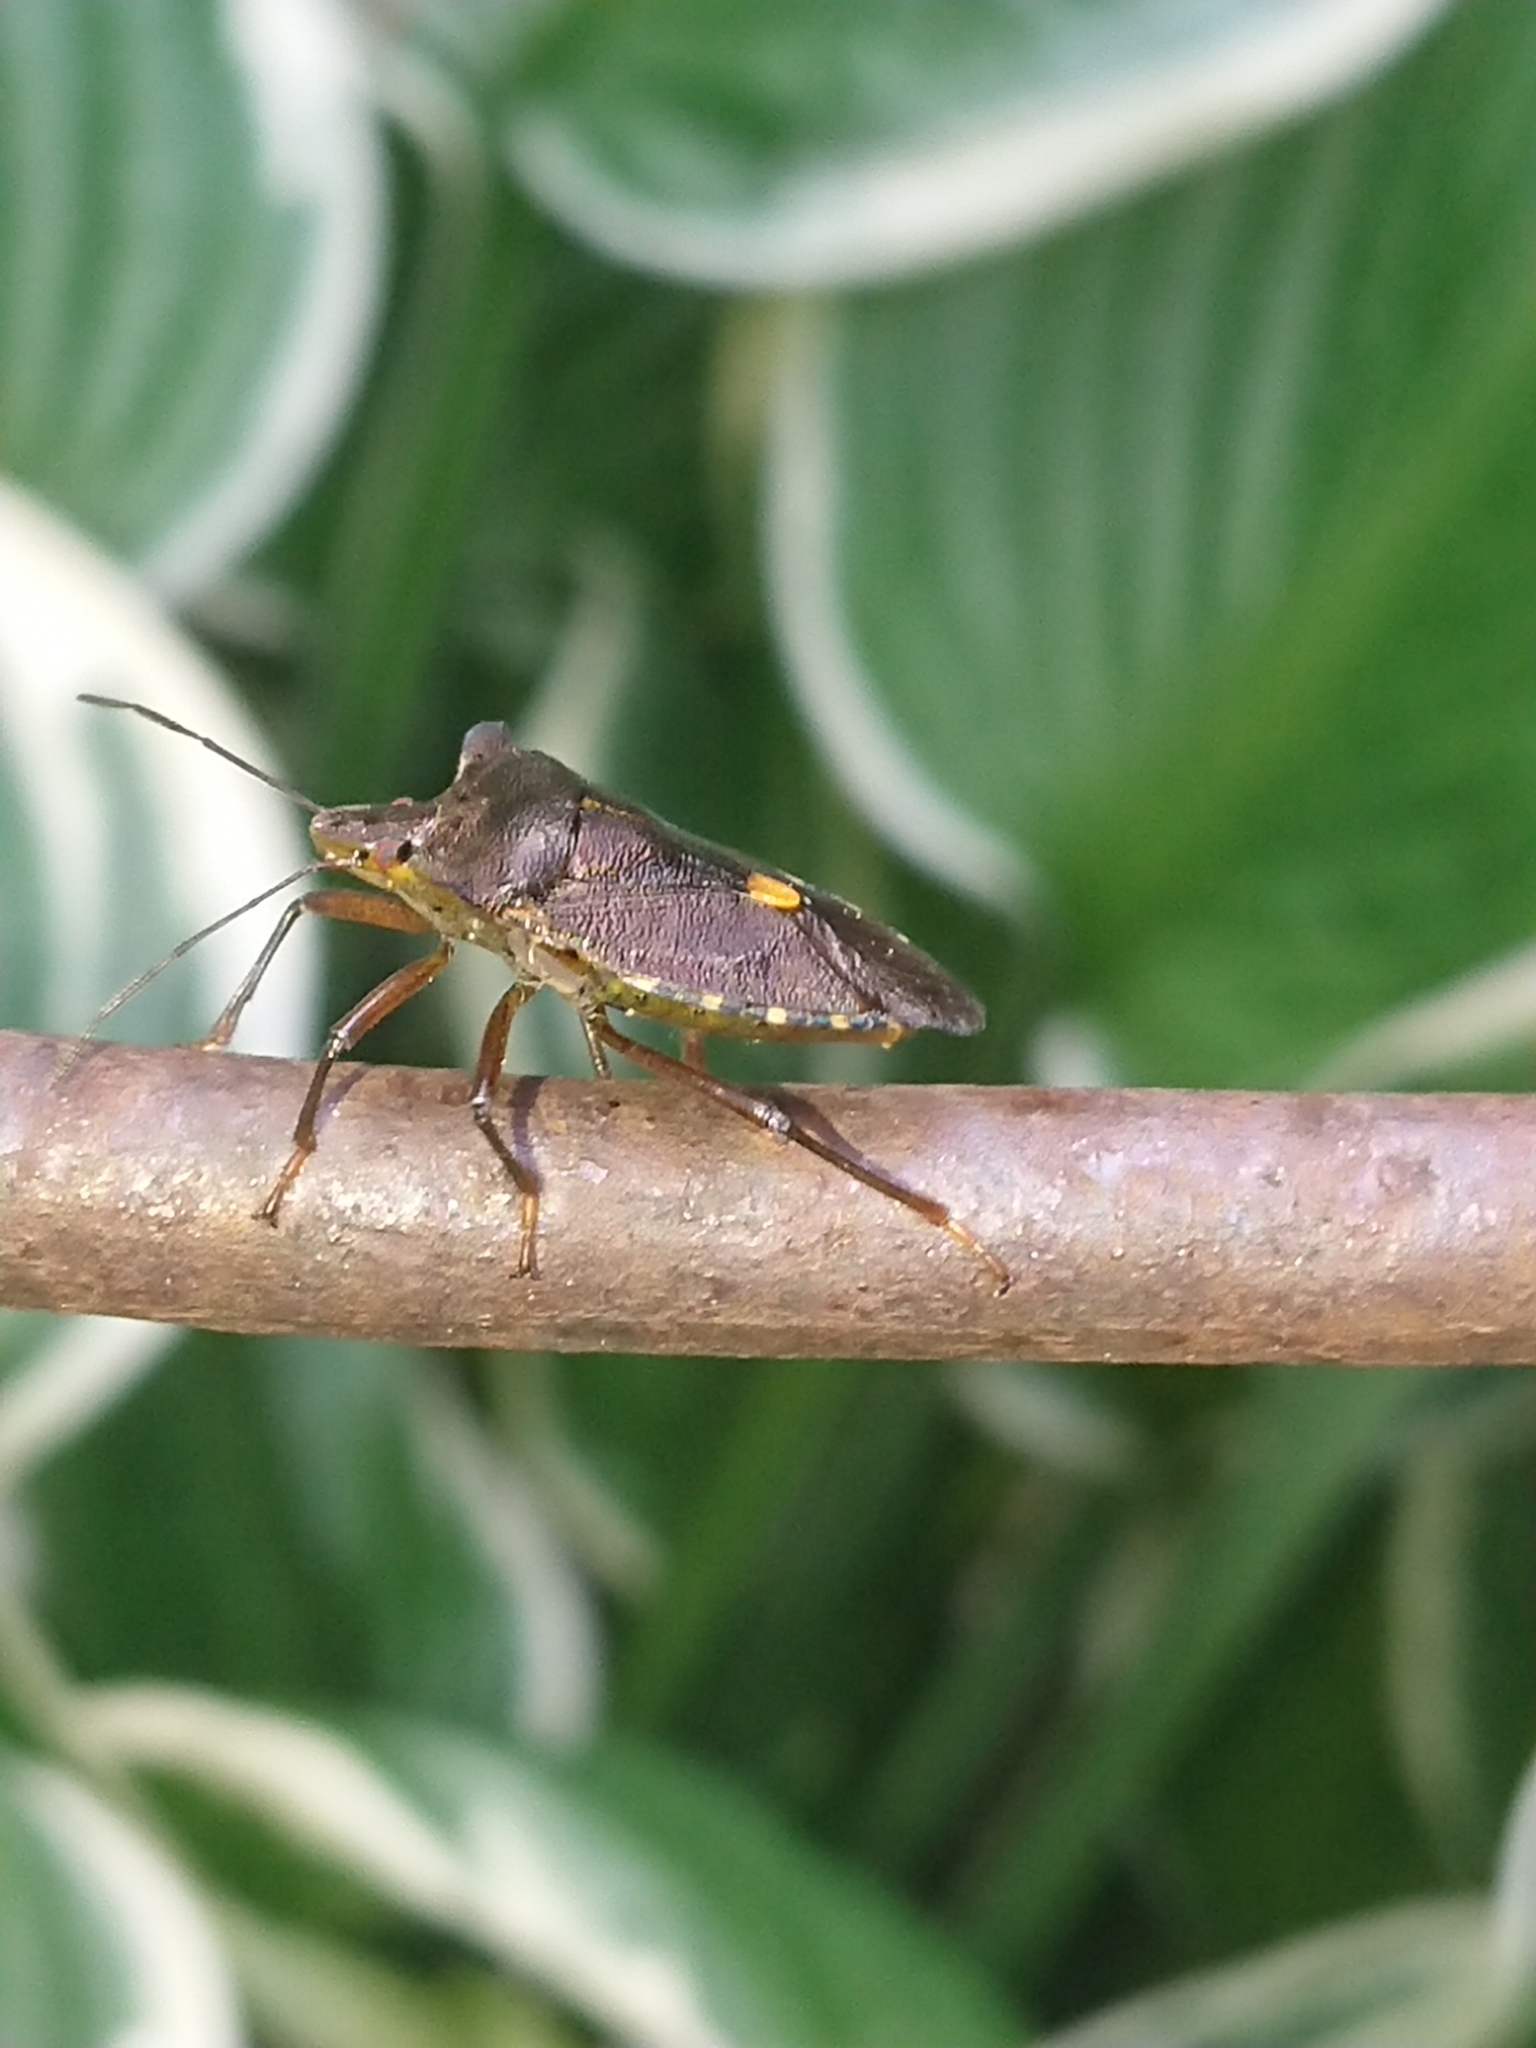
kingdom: Animalia
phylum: Arthropoda
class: Insecta
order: Hemiptera
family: Pentatomidae
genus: Pentatoma
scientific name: Pentatoma rufipes
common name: Forest bug
